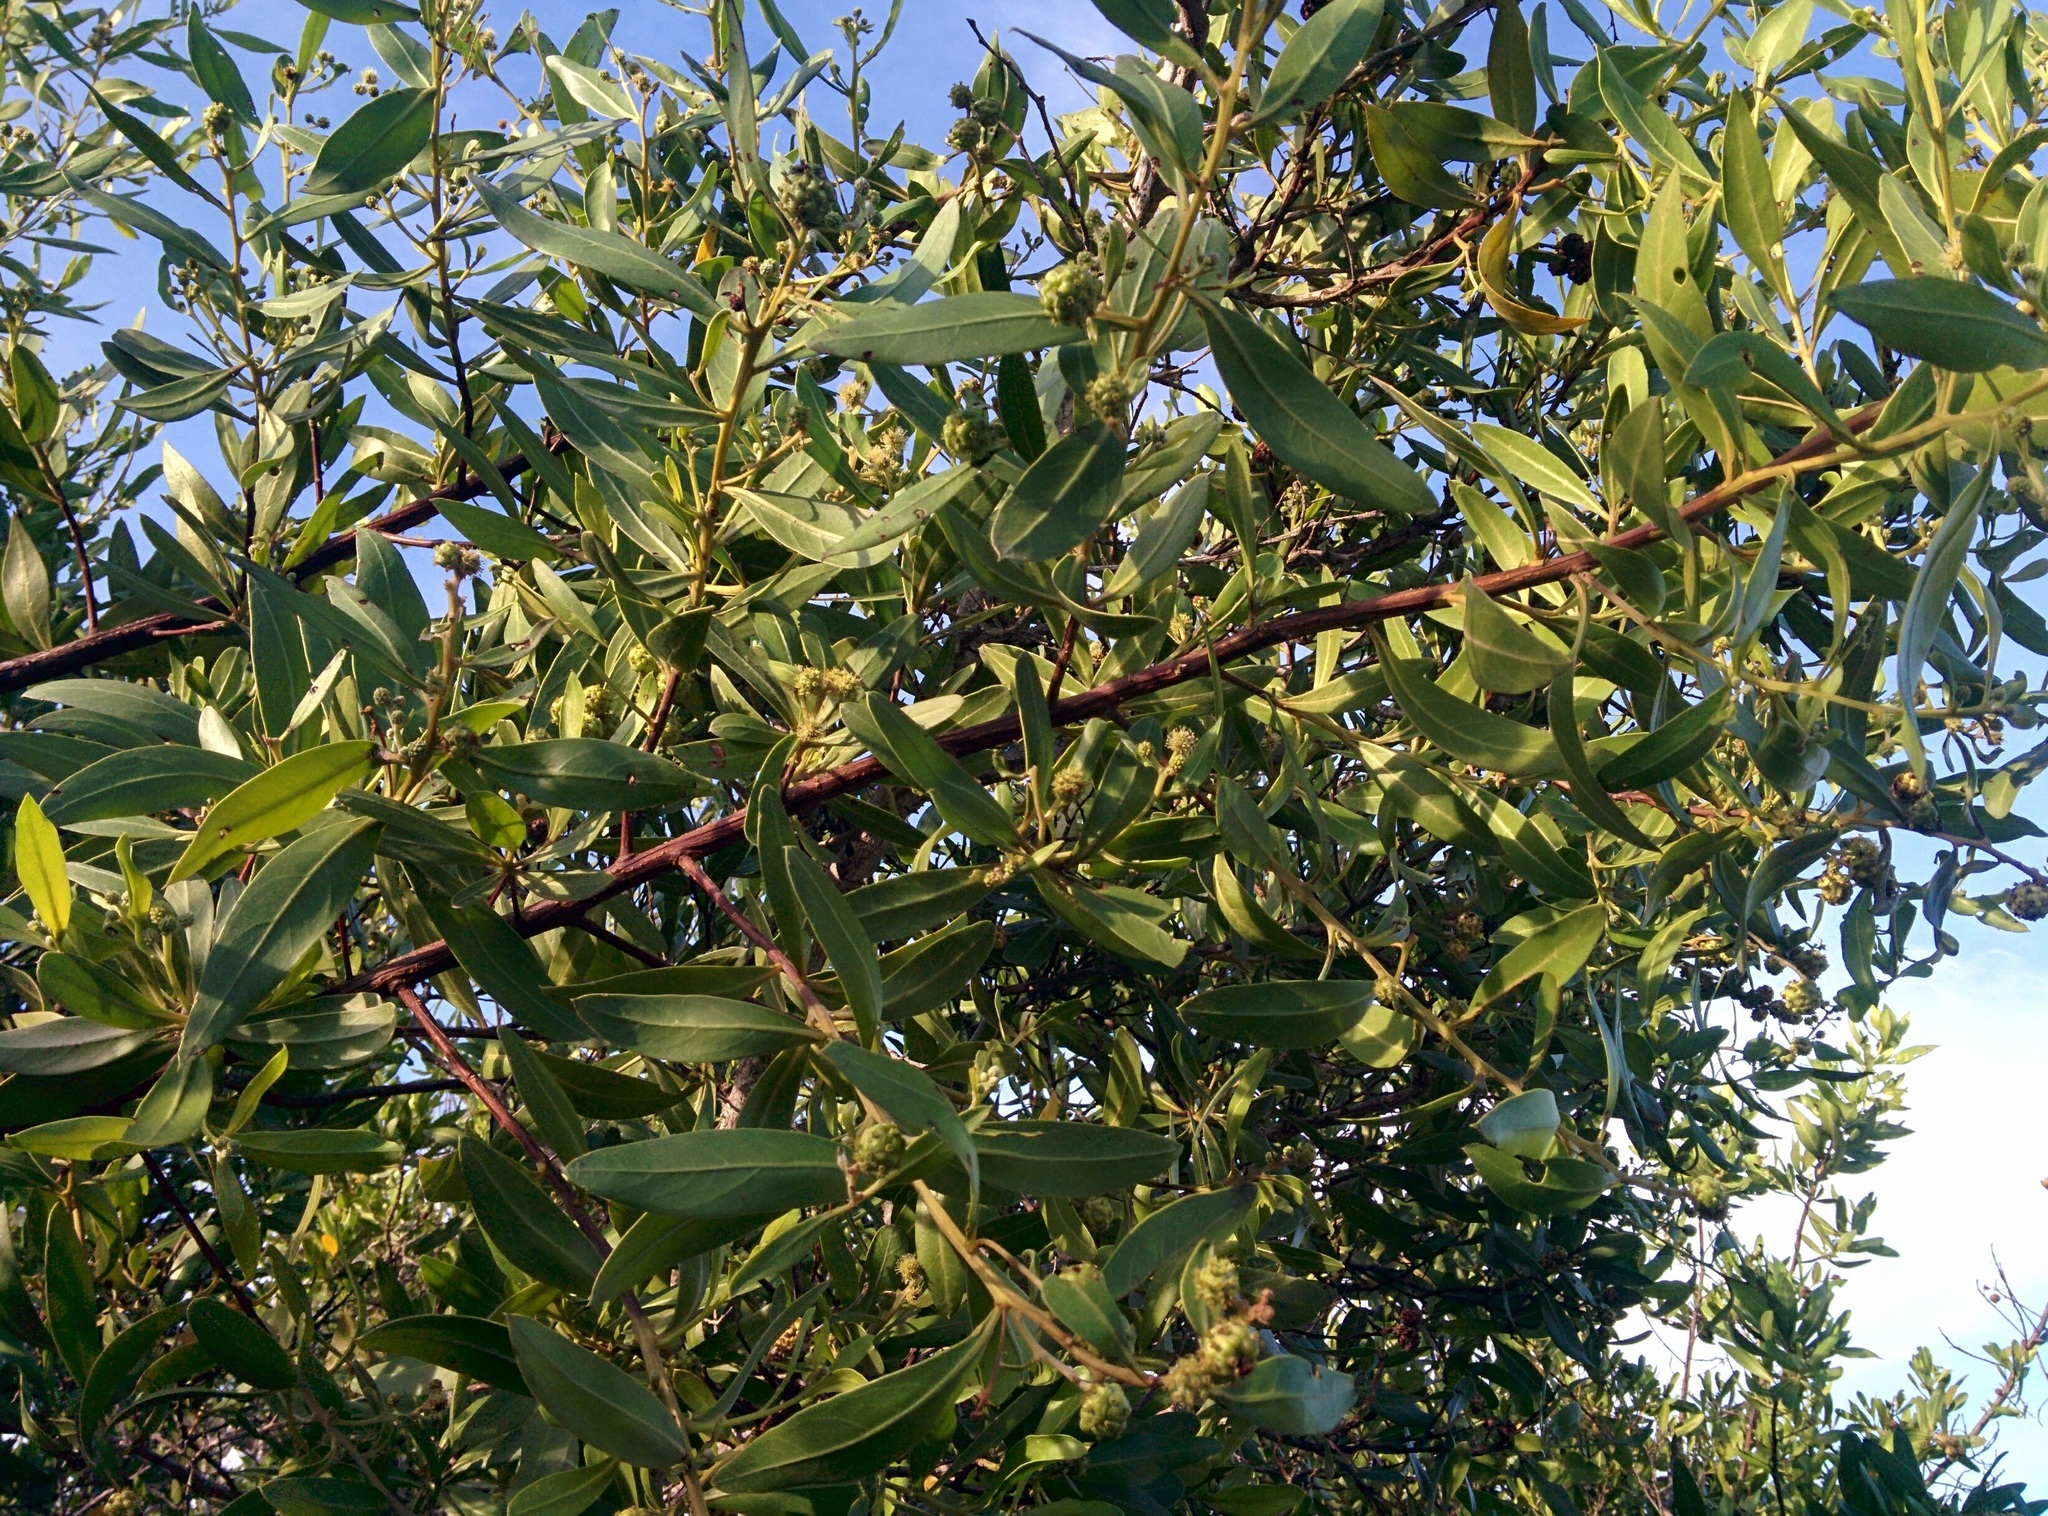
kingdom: Plantae
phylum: Tracheophyta
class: Magnoliopsida
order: Myrtales
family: Combretaceae
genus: Conocarpus
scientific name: Conocarpus erectus
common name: Button mangrove
